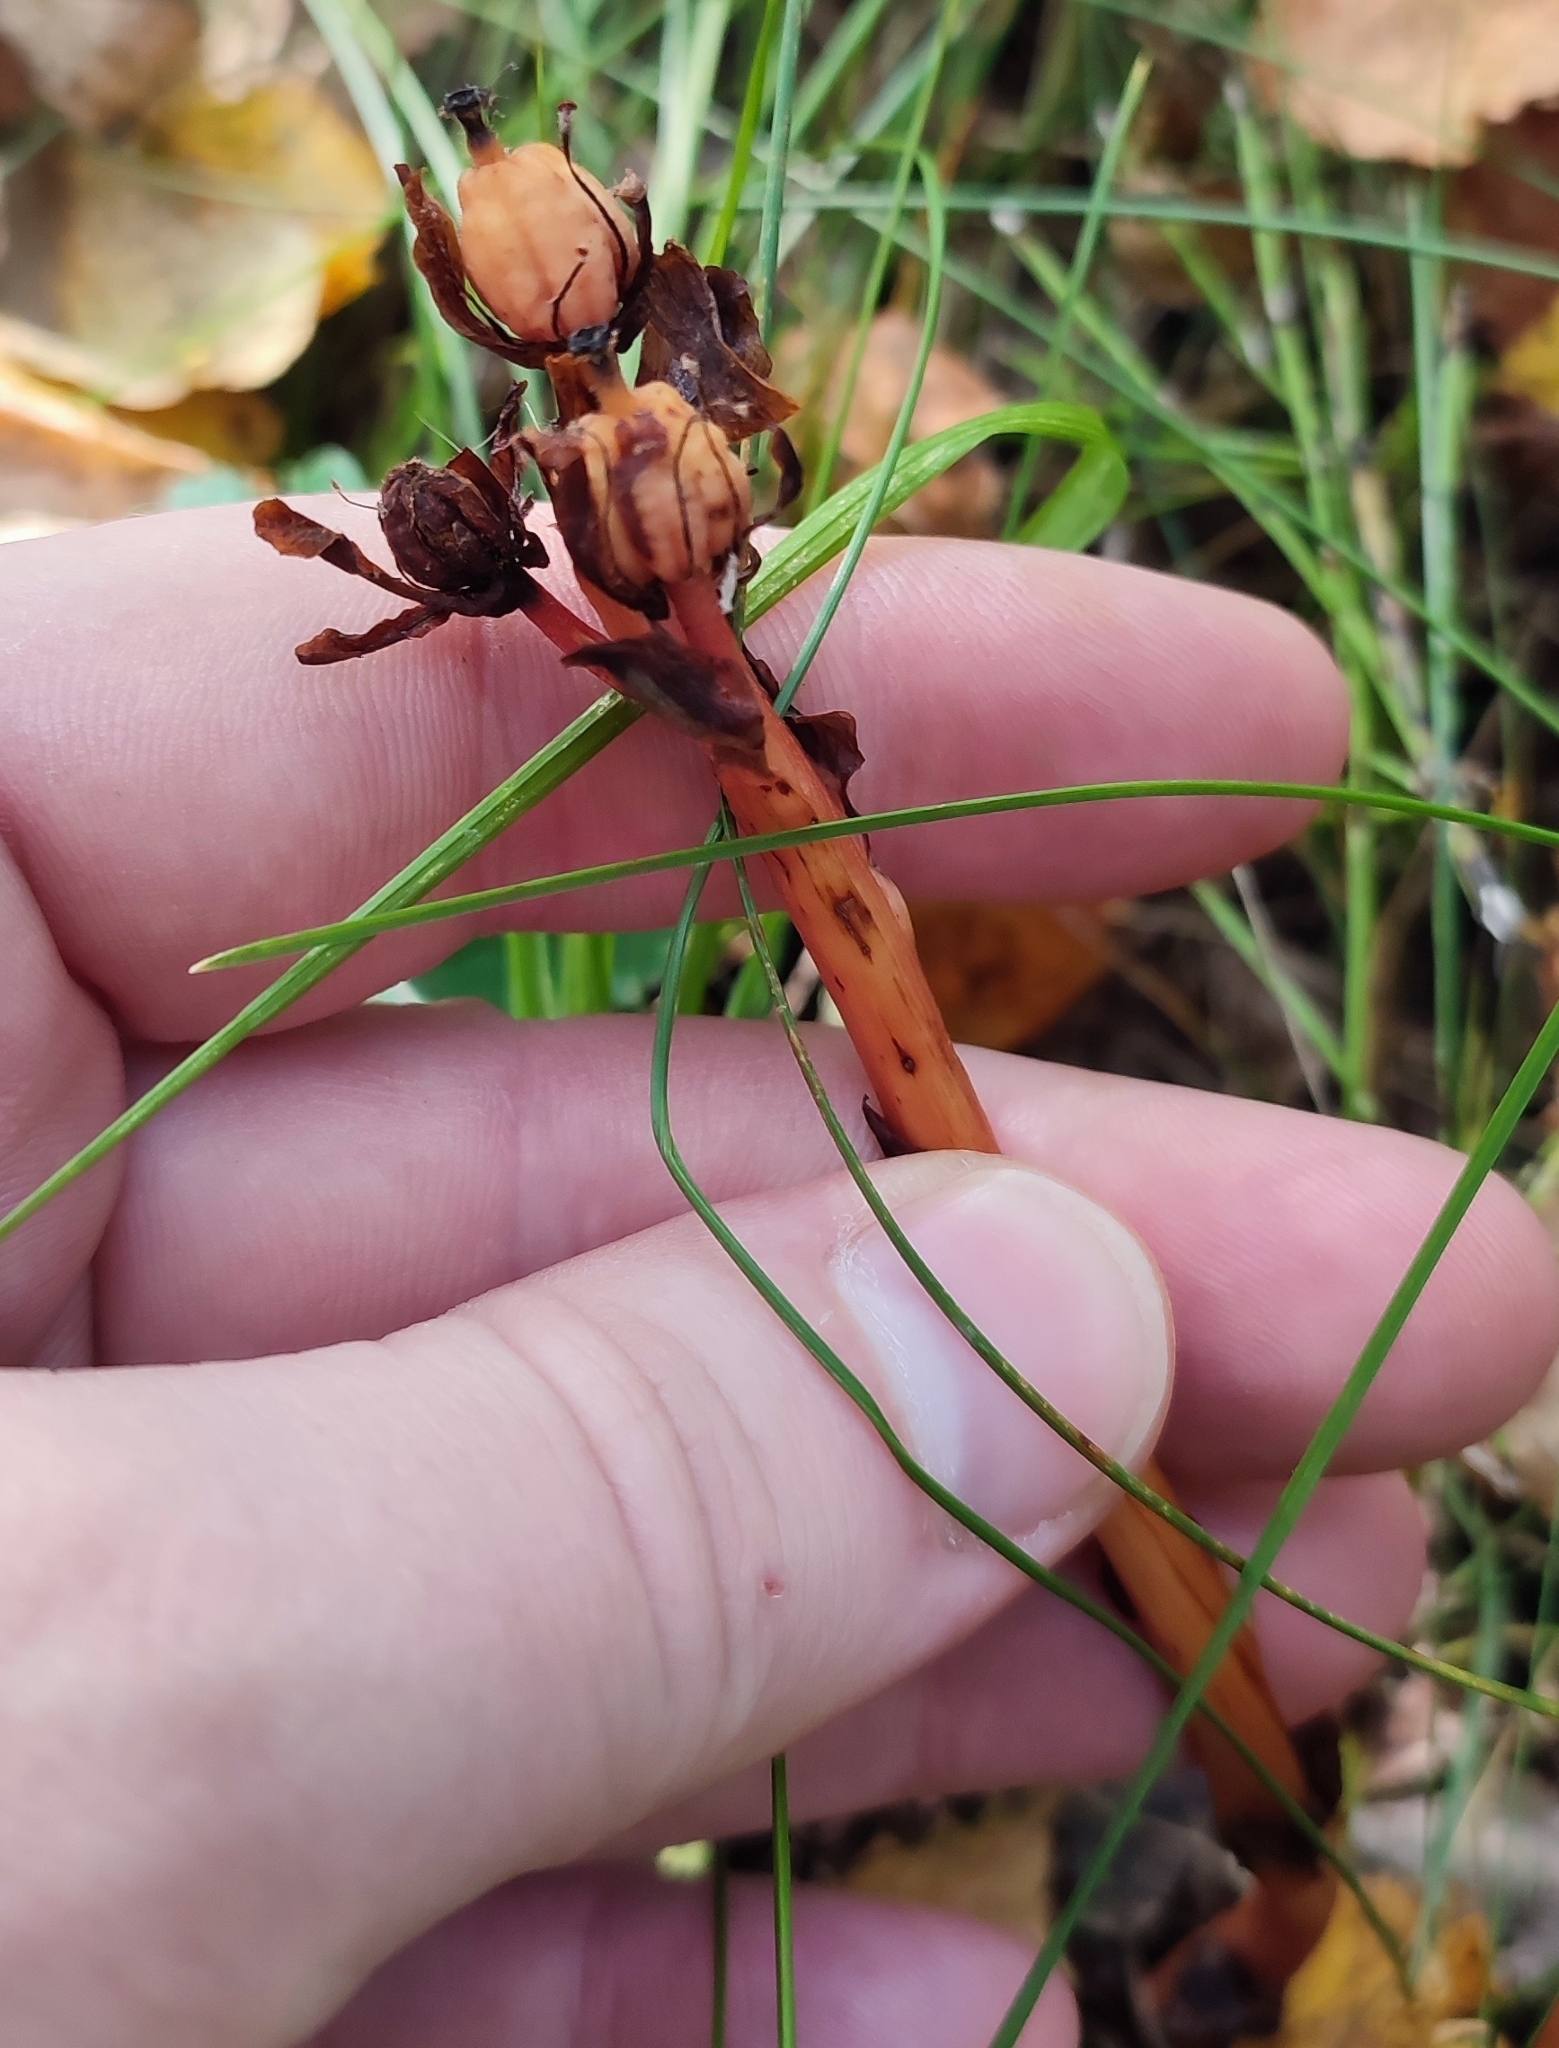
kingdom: Plantae
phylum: Tracheophyta
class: Magnoliopsida
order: Ericales
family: Ericaceae
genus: Hypopitys
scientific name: Hypopitys monotropa
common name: Yellow bird's-nest
